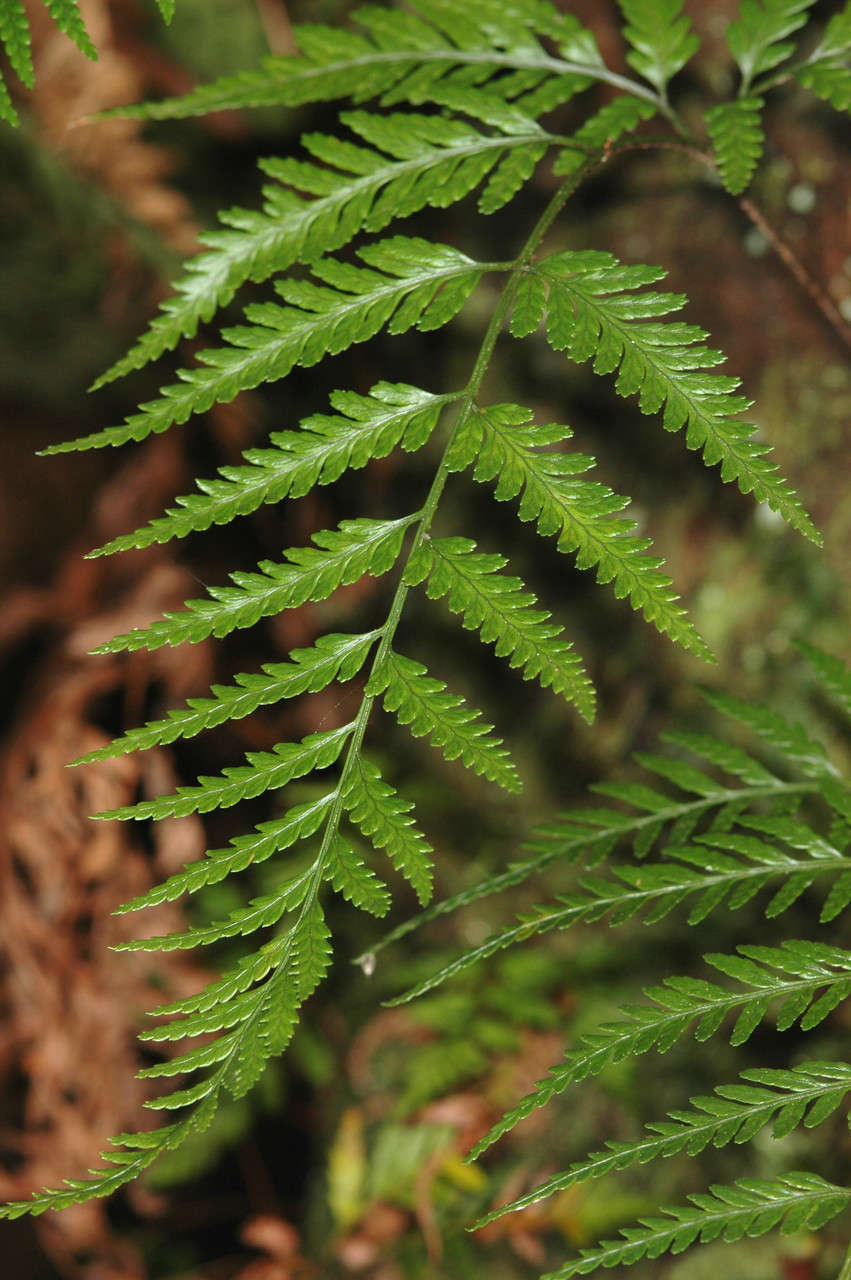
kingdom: Plantae
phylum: Tracheophyta
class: Polypodiopsida
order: Polypodiales
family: Dryopteridaceae
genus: Rumohra
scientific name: Rumohra adiantiformis
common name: Leather fern
